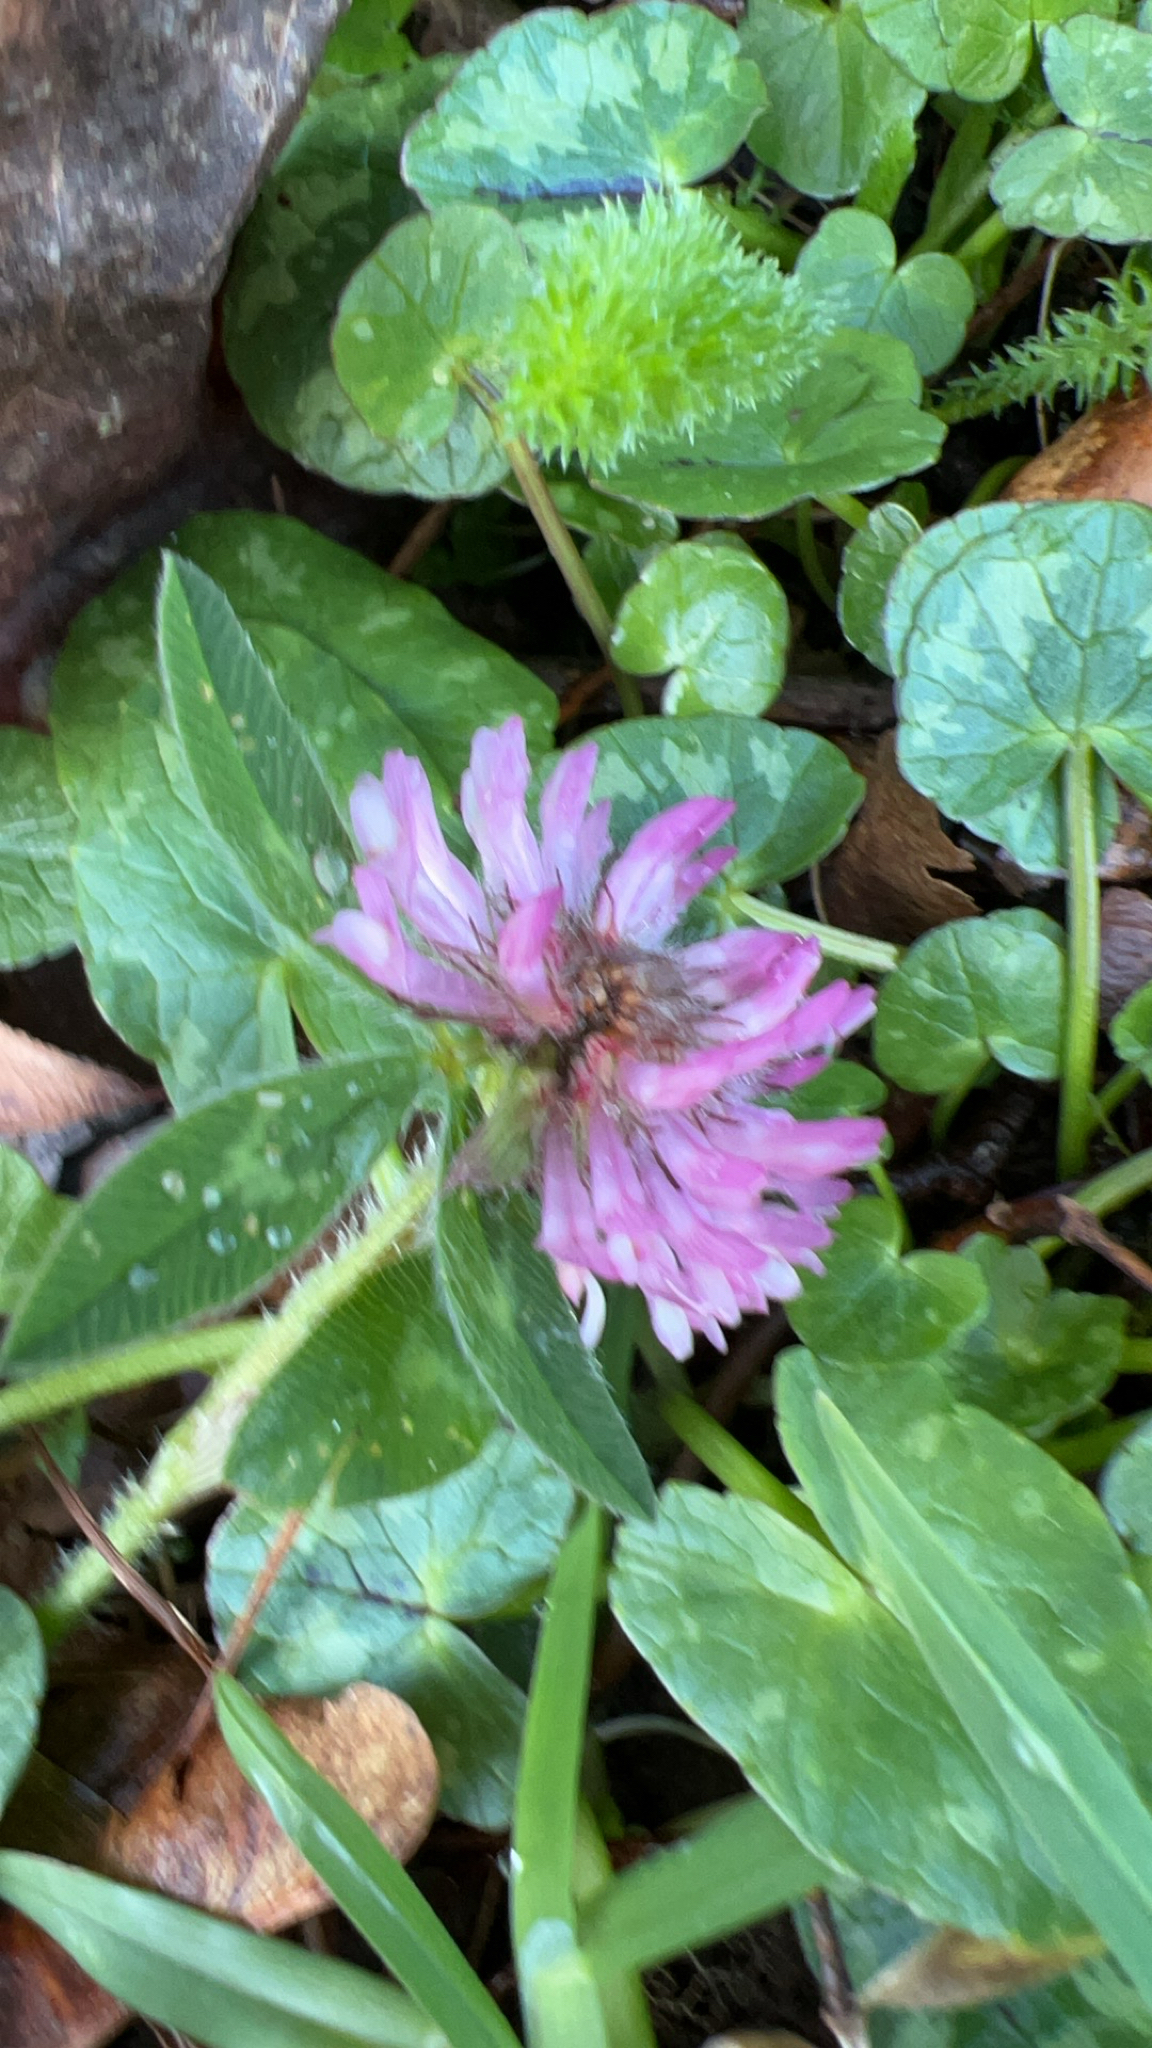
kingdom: Plantae
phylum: Tracheophyta
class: Magnoliopsida
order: Fabales
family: Fabaceae
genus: Trifolium
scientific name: Trifolium pratense
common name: Red clover
